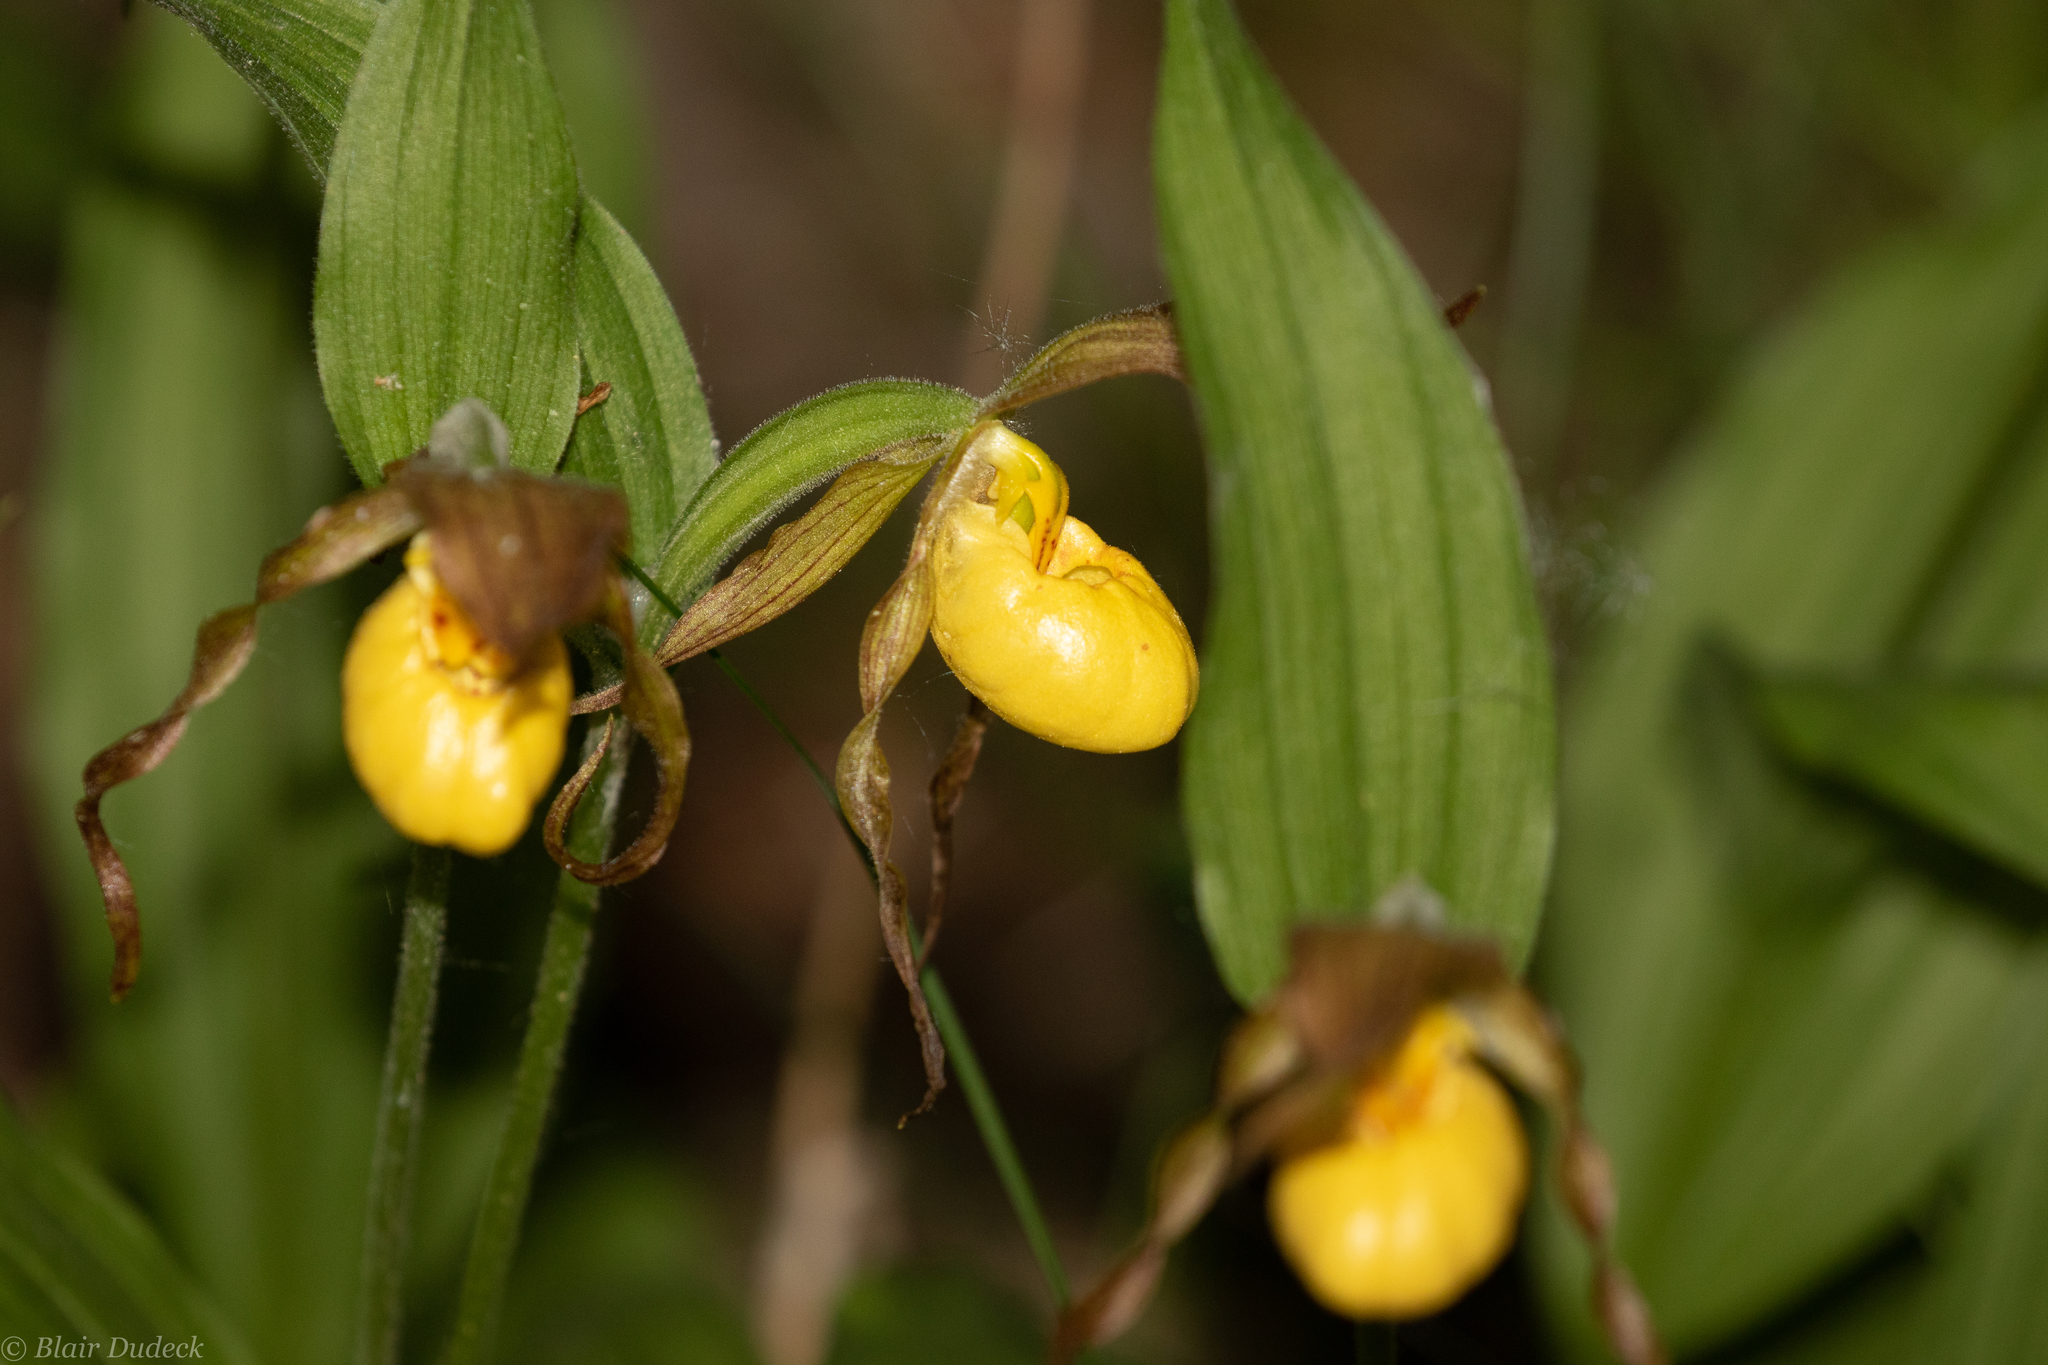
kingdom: Plantae
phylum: Tracheophyta
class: Liliopsida
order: Asparagales
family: Orchidaceae
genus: Cypripedium
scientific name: Cypripedium parviflorum
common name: American yellow lady's-slipper
